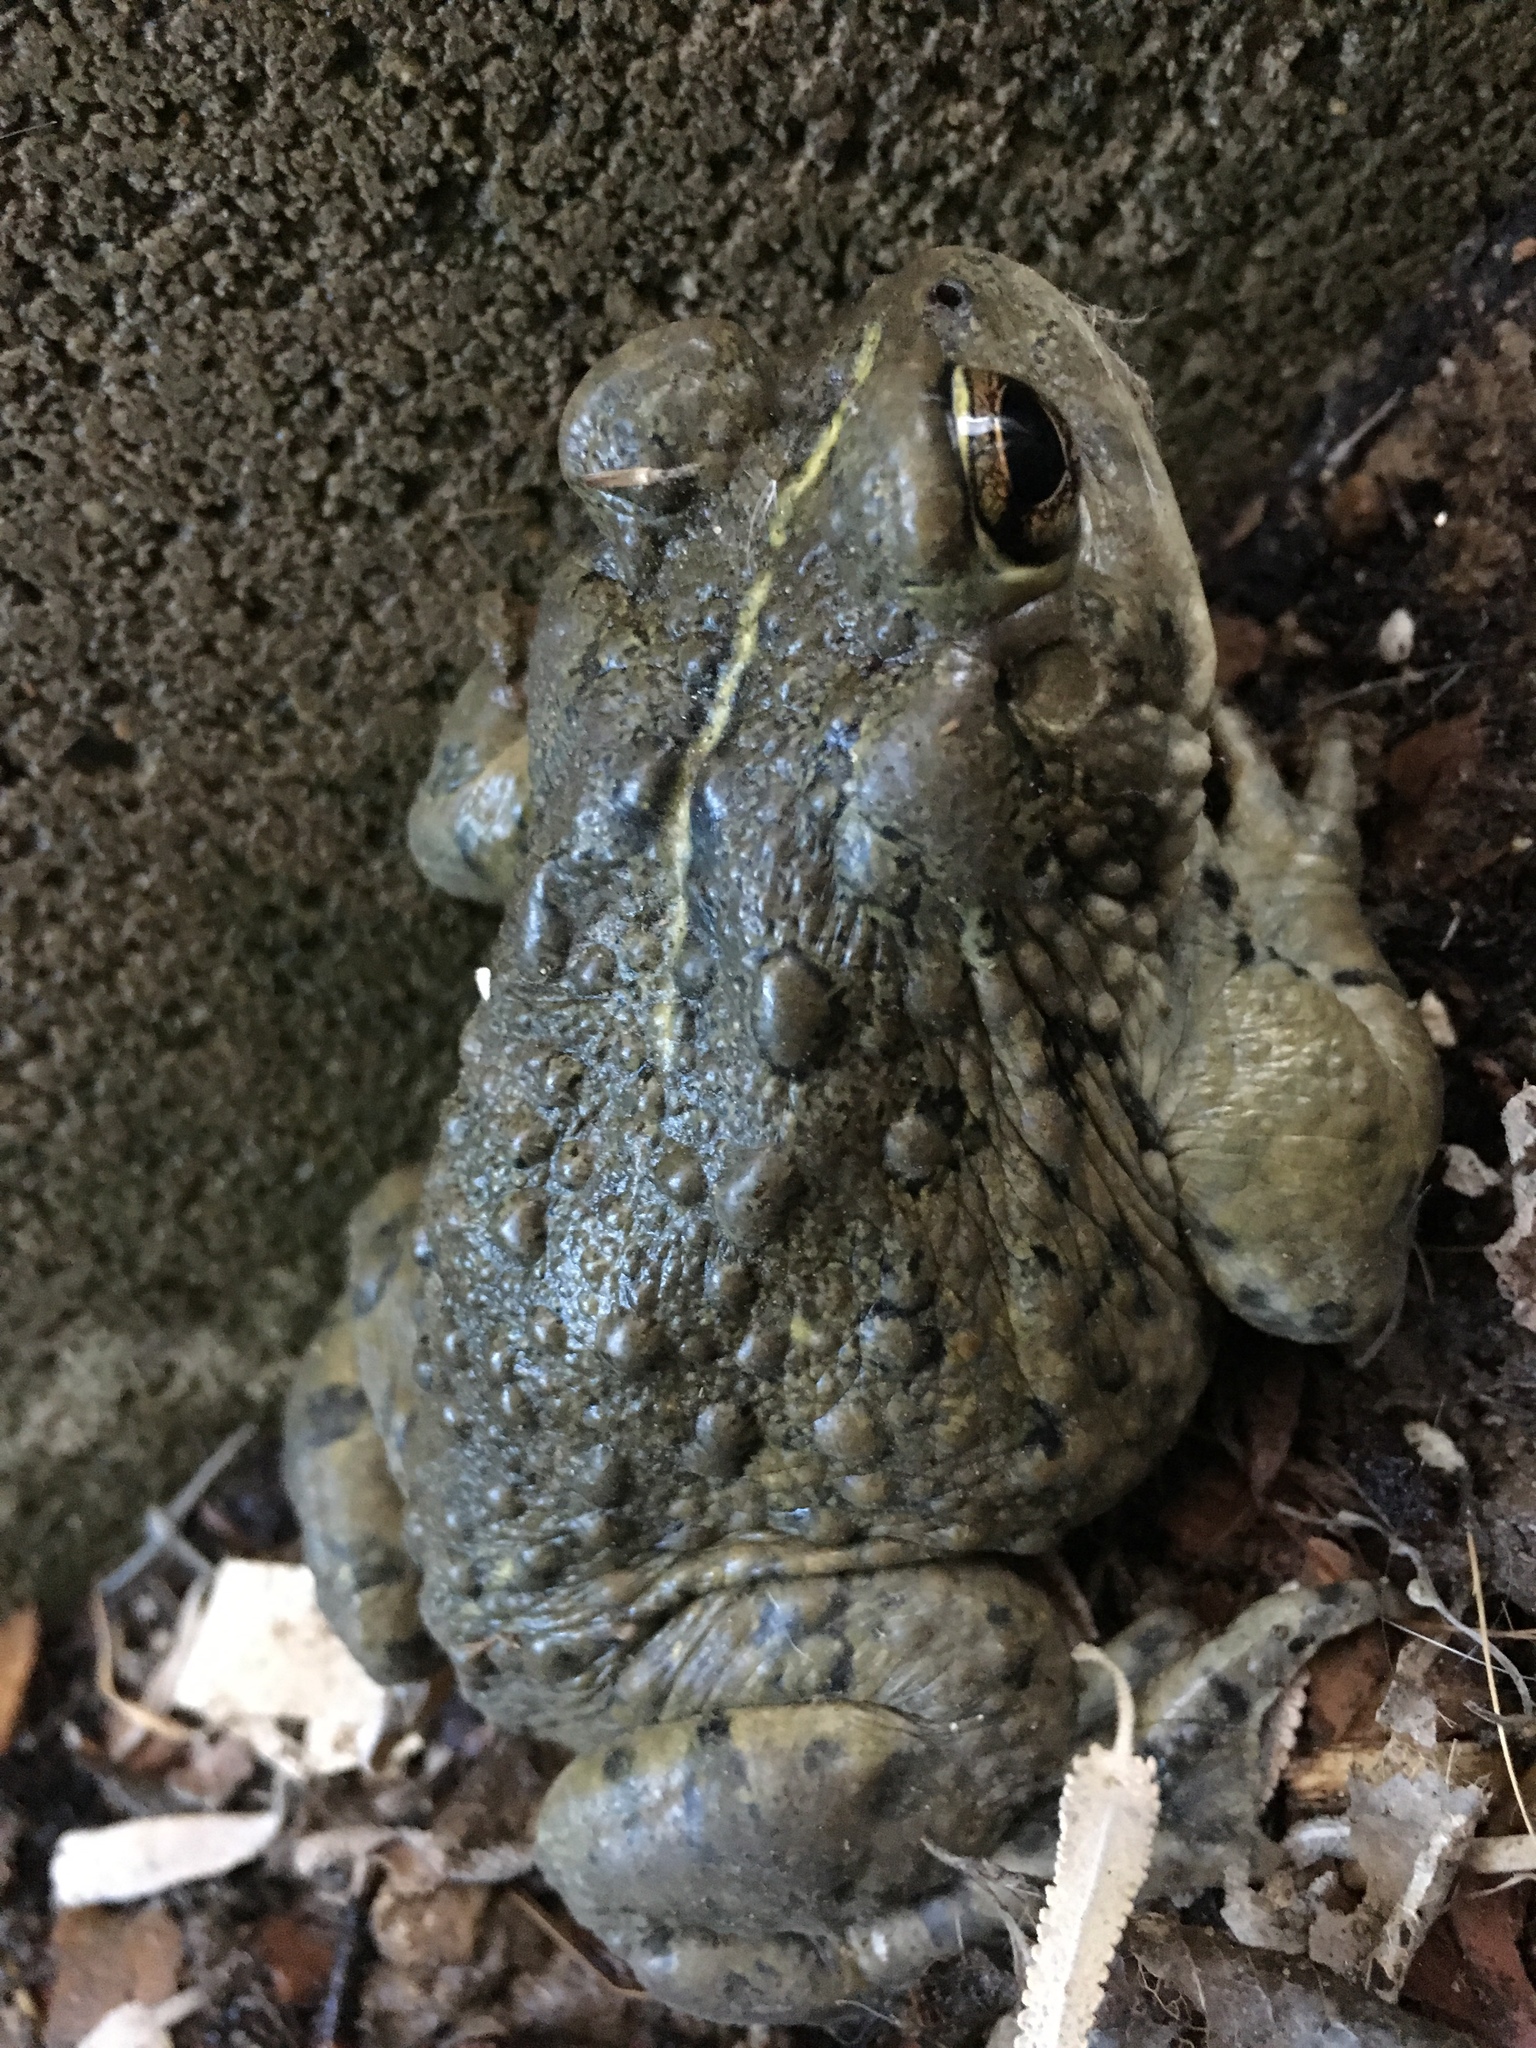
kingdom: Animalia
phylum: Chordata
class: Amphibia
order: Anura
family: Bufonidae
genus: Anaxyrus
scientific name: Anaxyrus boreas
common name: Western toad
